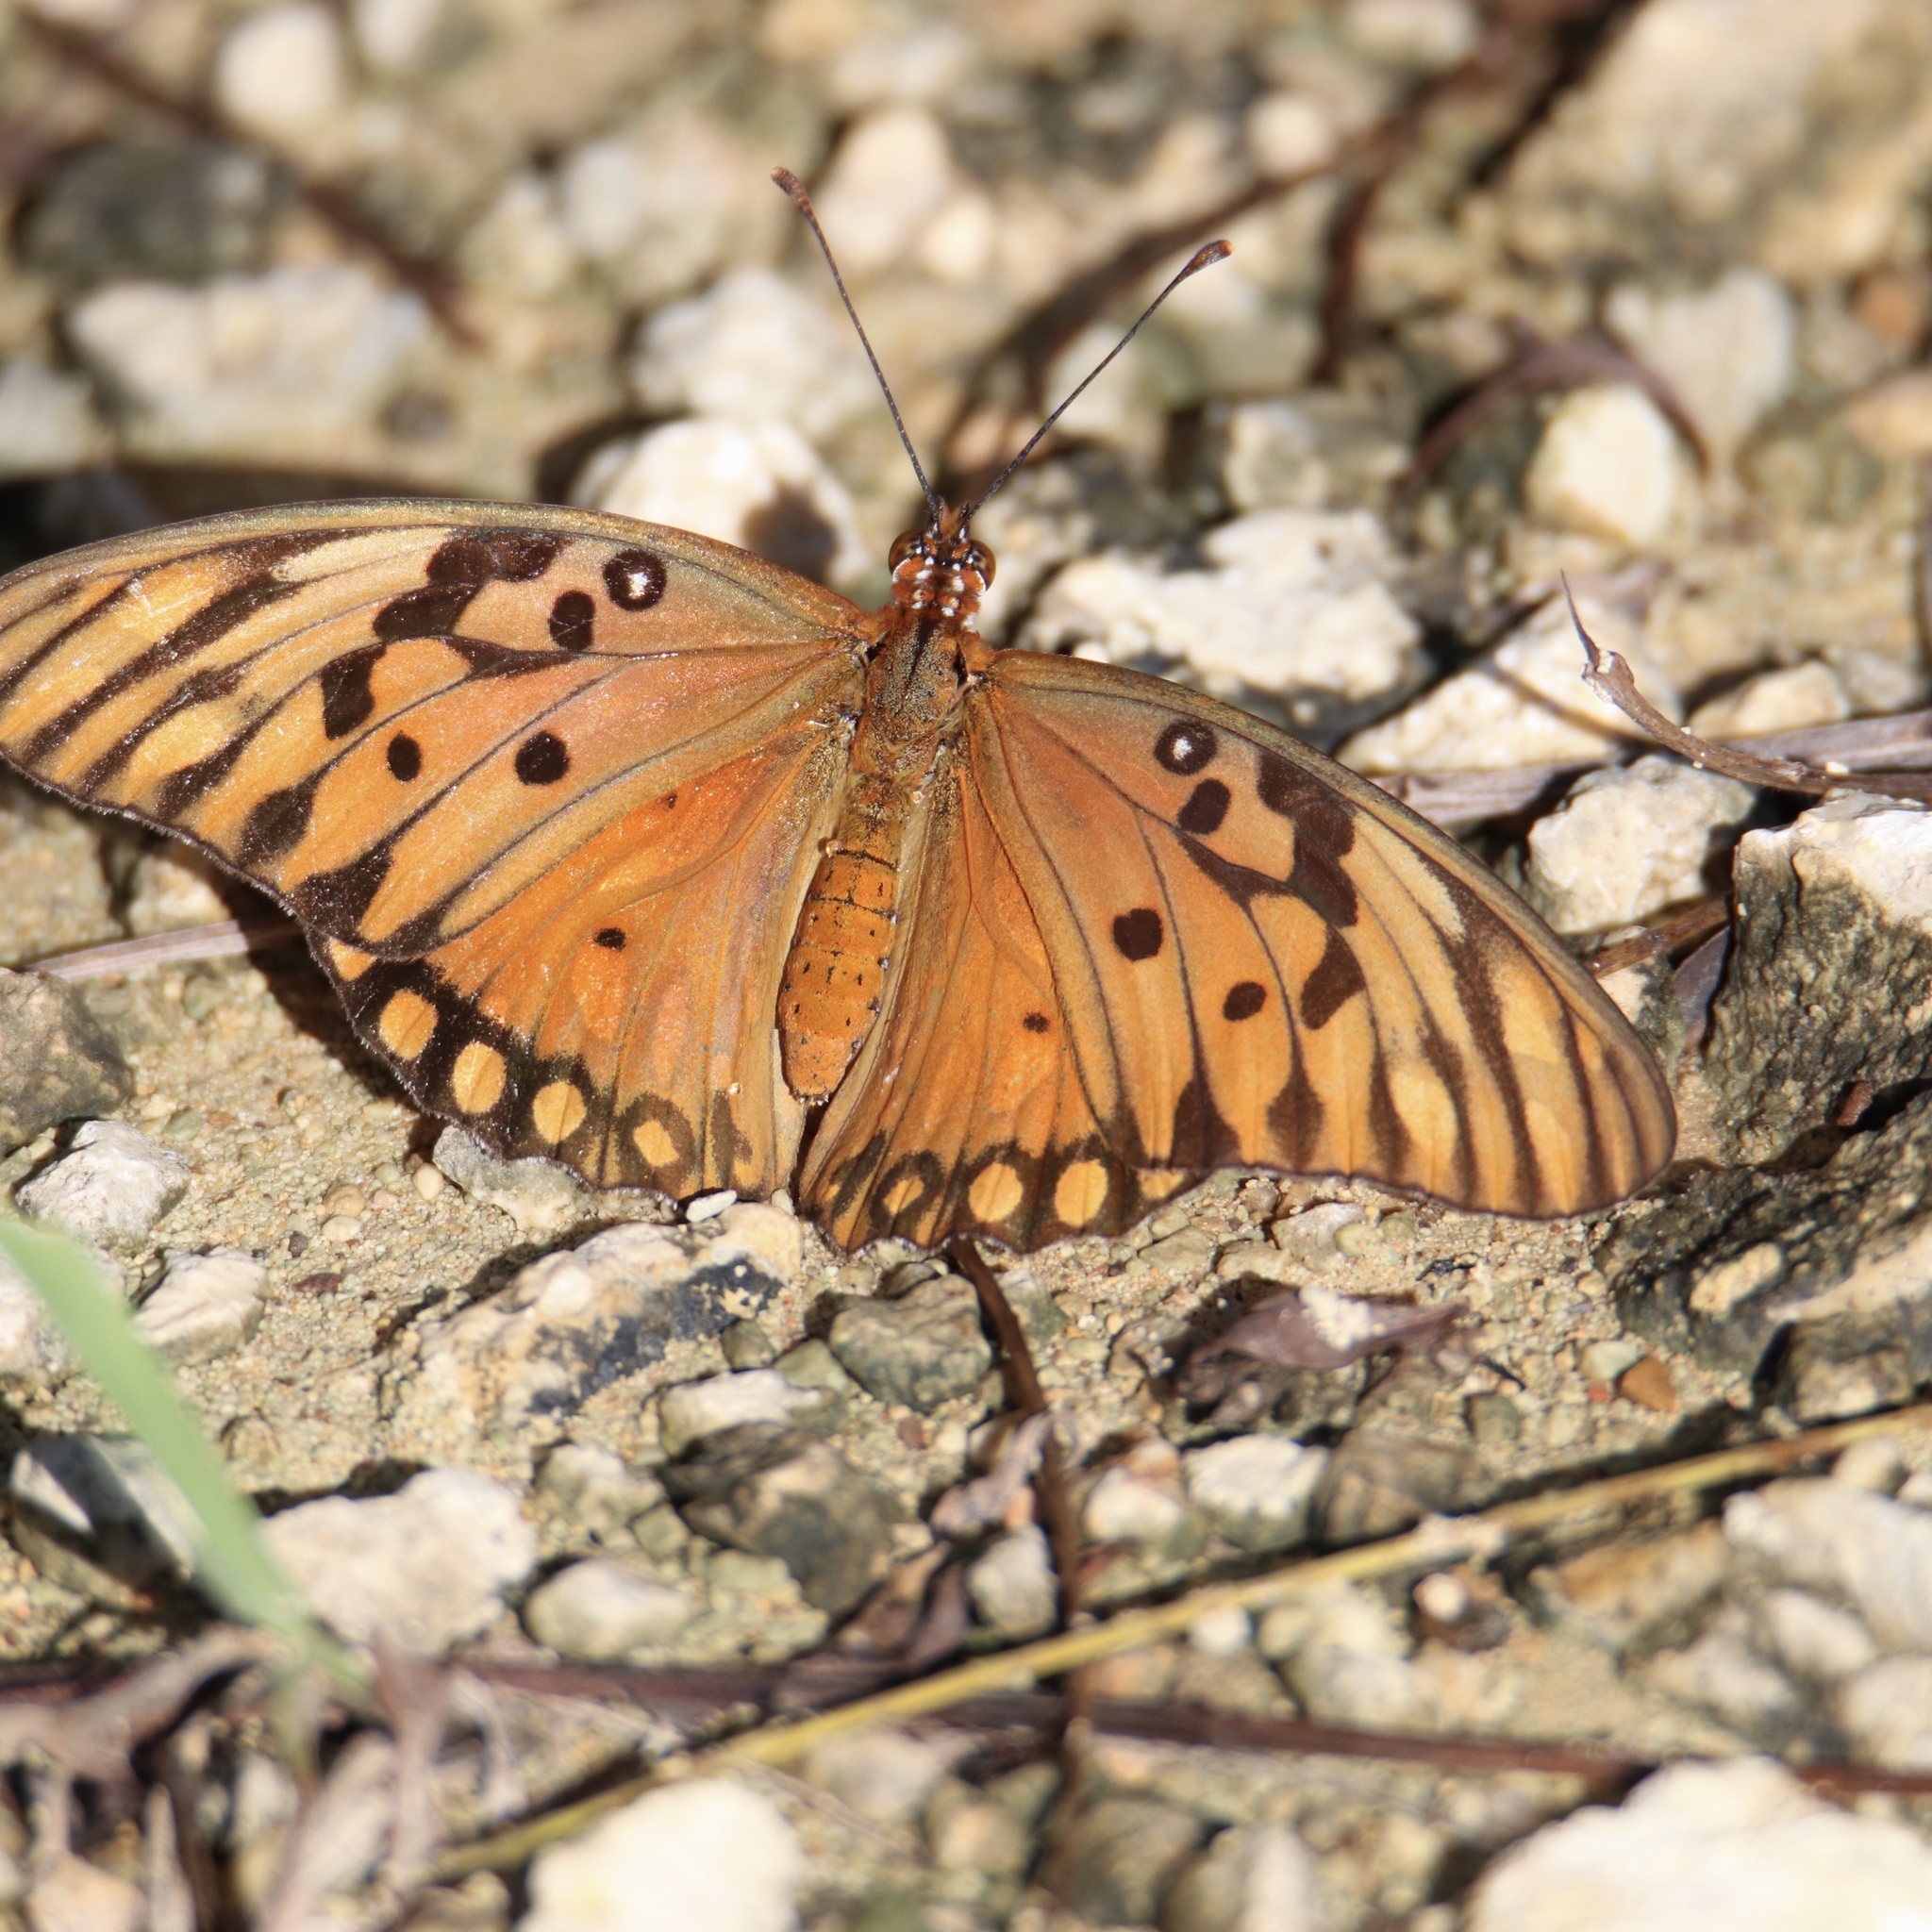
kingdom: Animalia
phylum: Arthropoda
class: Insecta
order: Lepidoptera
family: Nymphalidae
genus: Dione
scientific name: Dione vanillae
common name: Gulf fritillary
